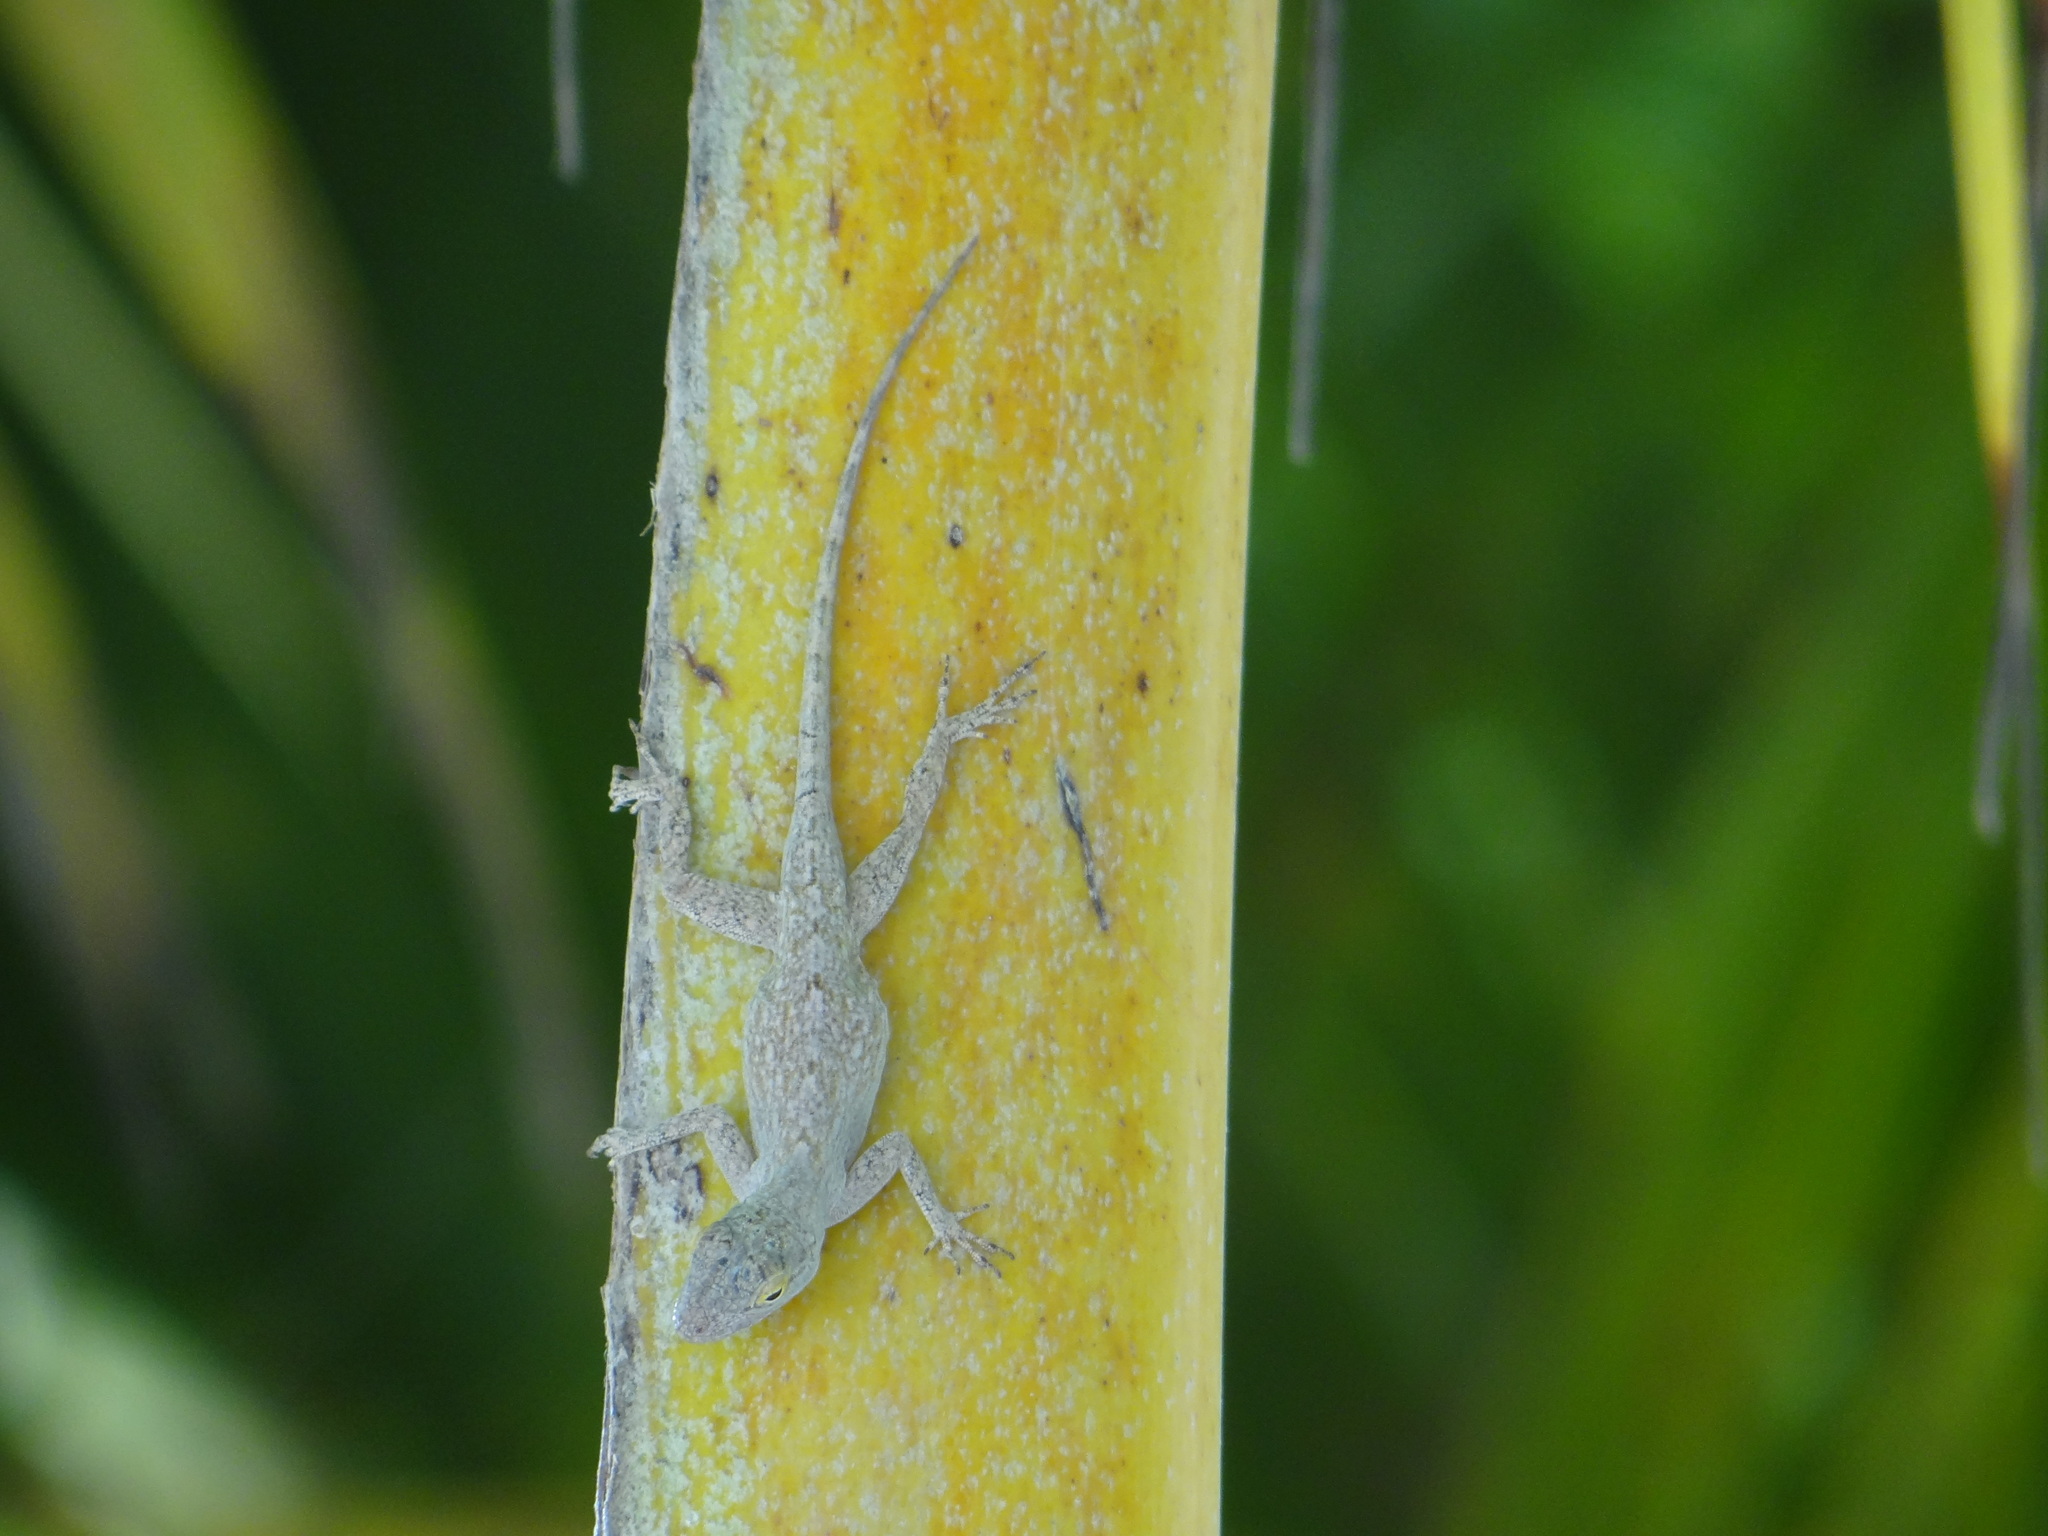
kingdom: Animalia
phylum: Chordata
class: Squamata
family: Dactyloidae
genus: Anolis
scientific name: Anolis distichus
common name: Bark anole
